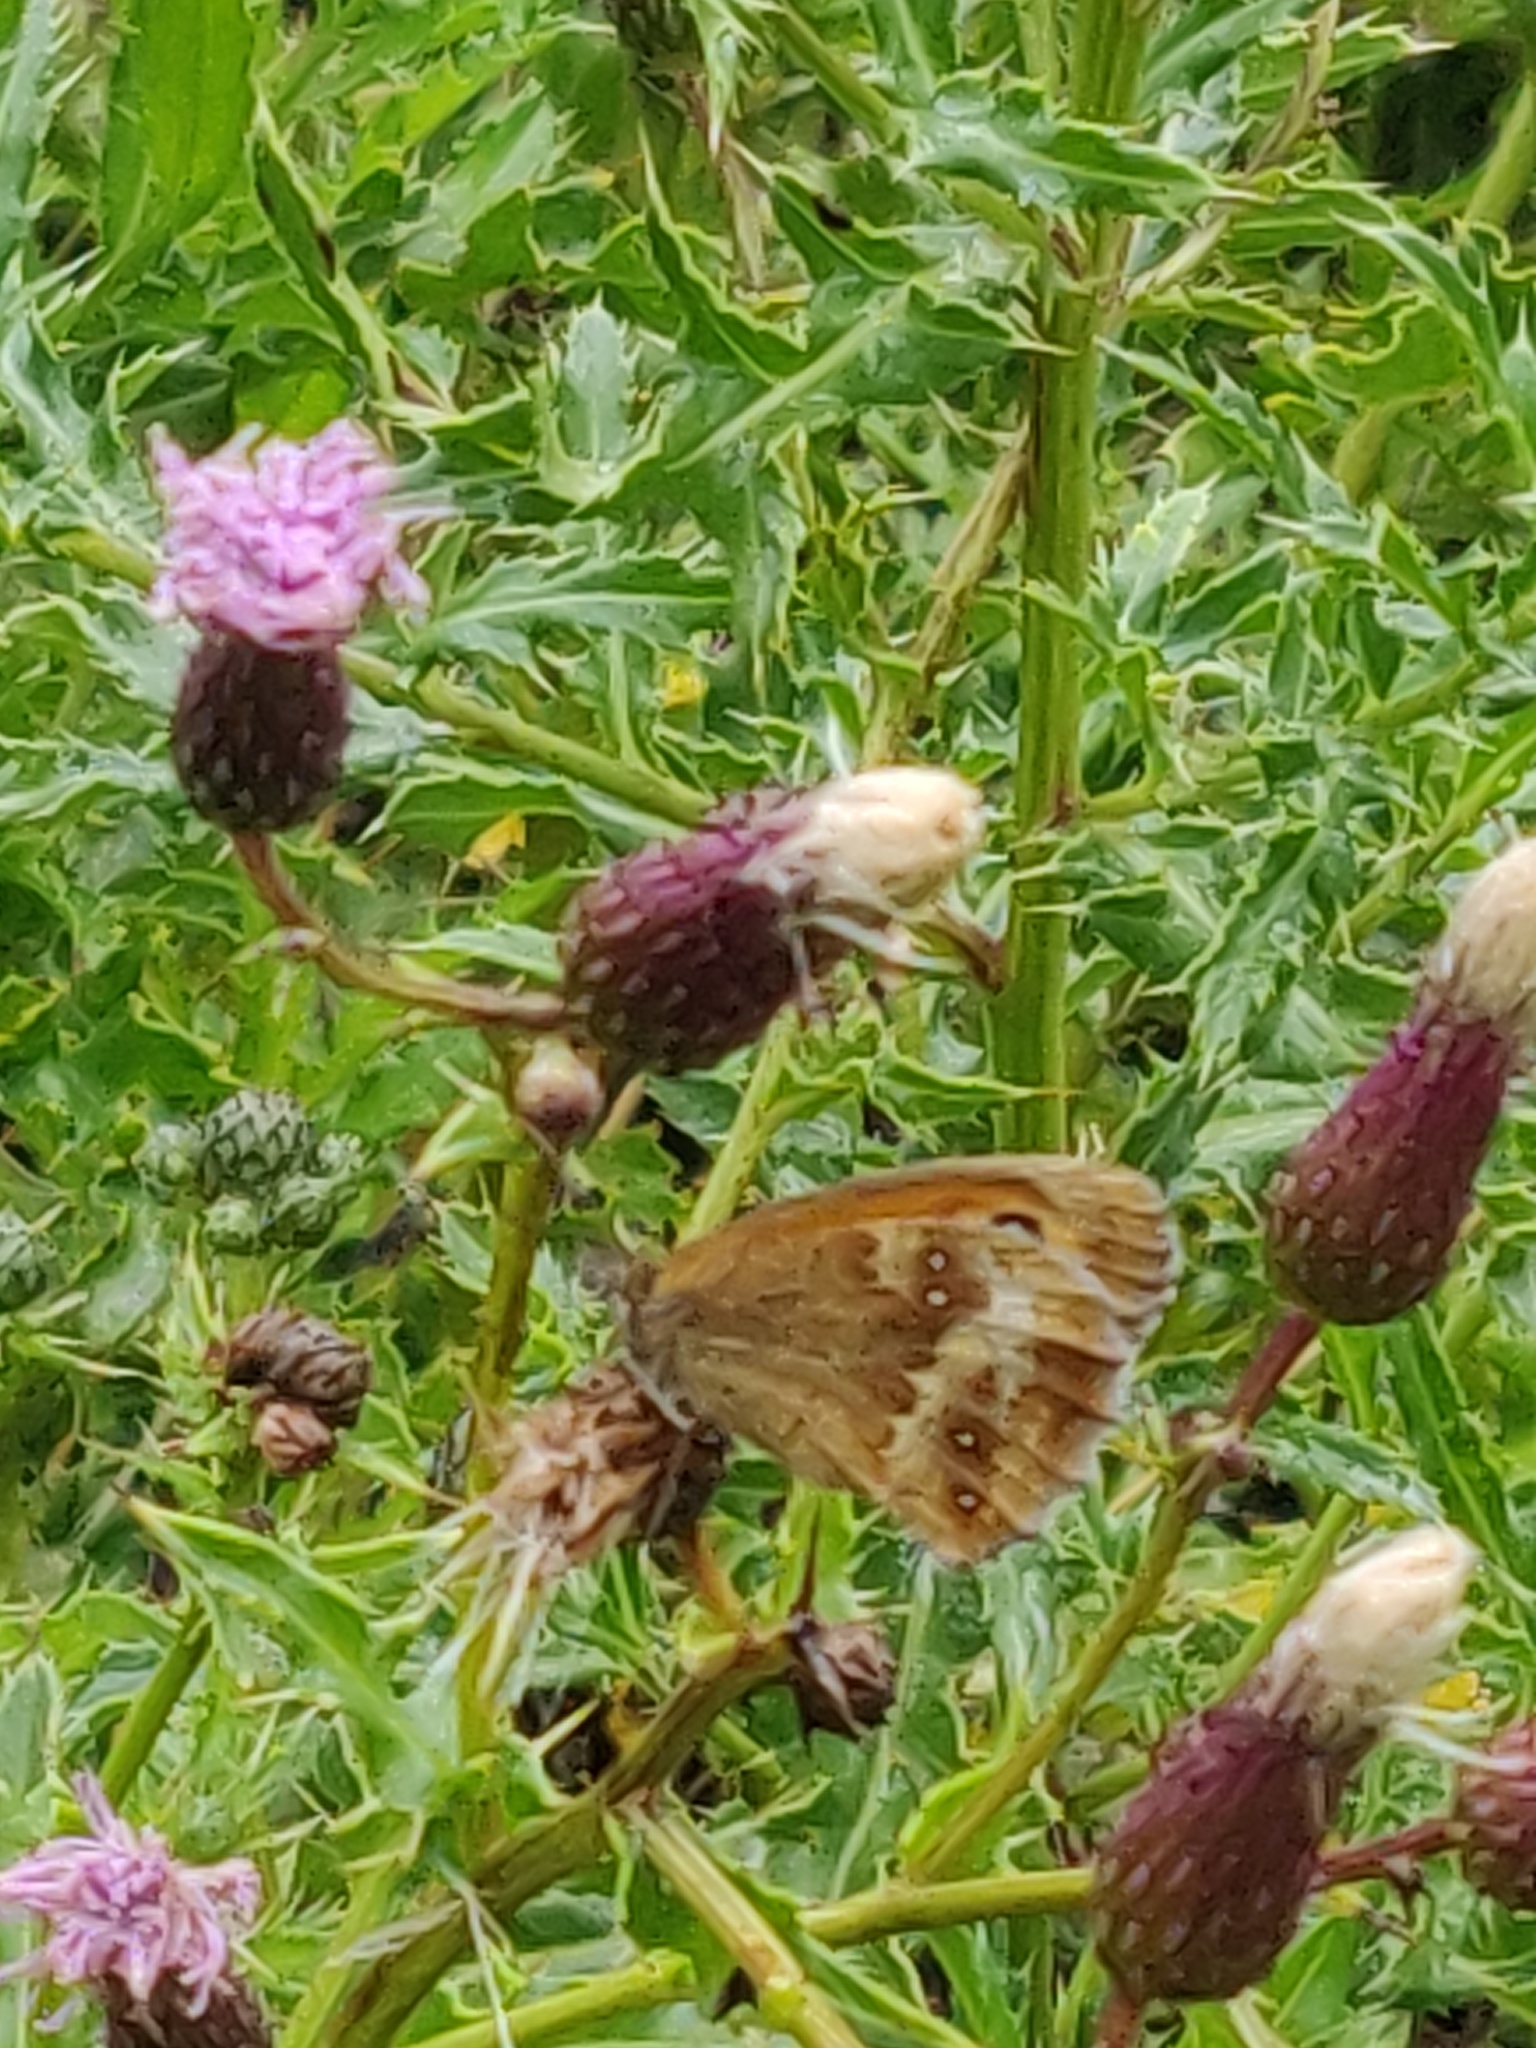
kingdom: Animalia
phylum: Arthropoda
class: Insecta
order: Lepidoptera
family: Nymphalidae
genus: Pyronia
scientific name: Pyronia tithonus
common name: Gatekeeper
